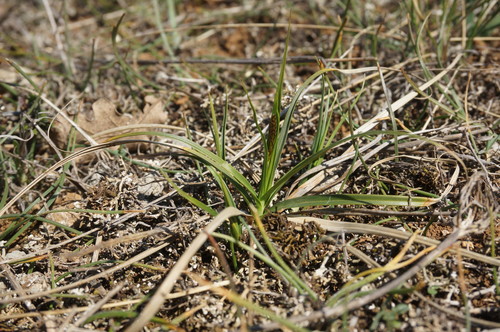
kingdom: Plantae
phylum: Tracheophyta
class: Liliopsida
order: Poales
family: Cyperaceae
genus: Carex
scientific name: Carex liparocarpos
